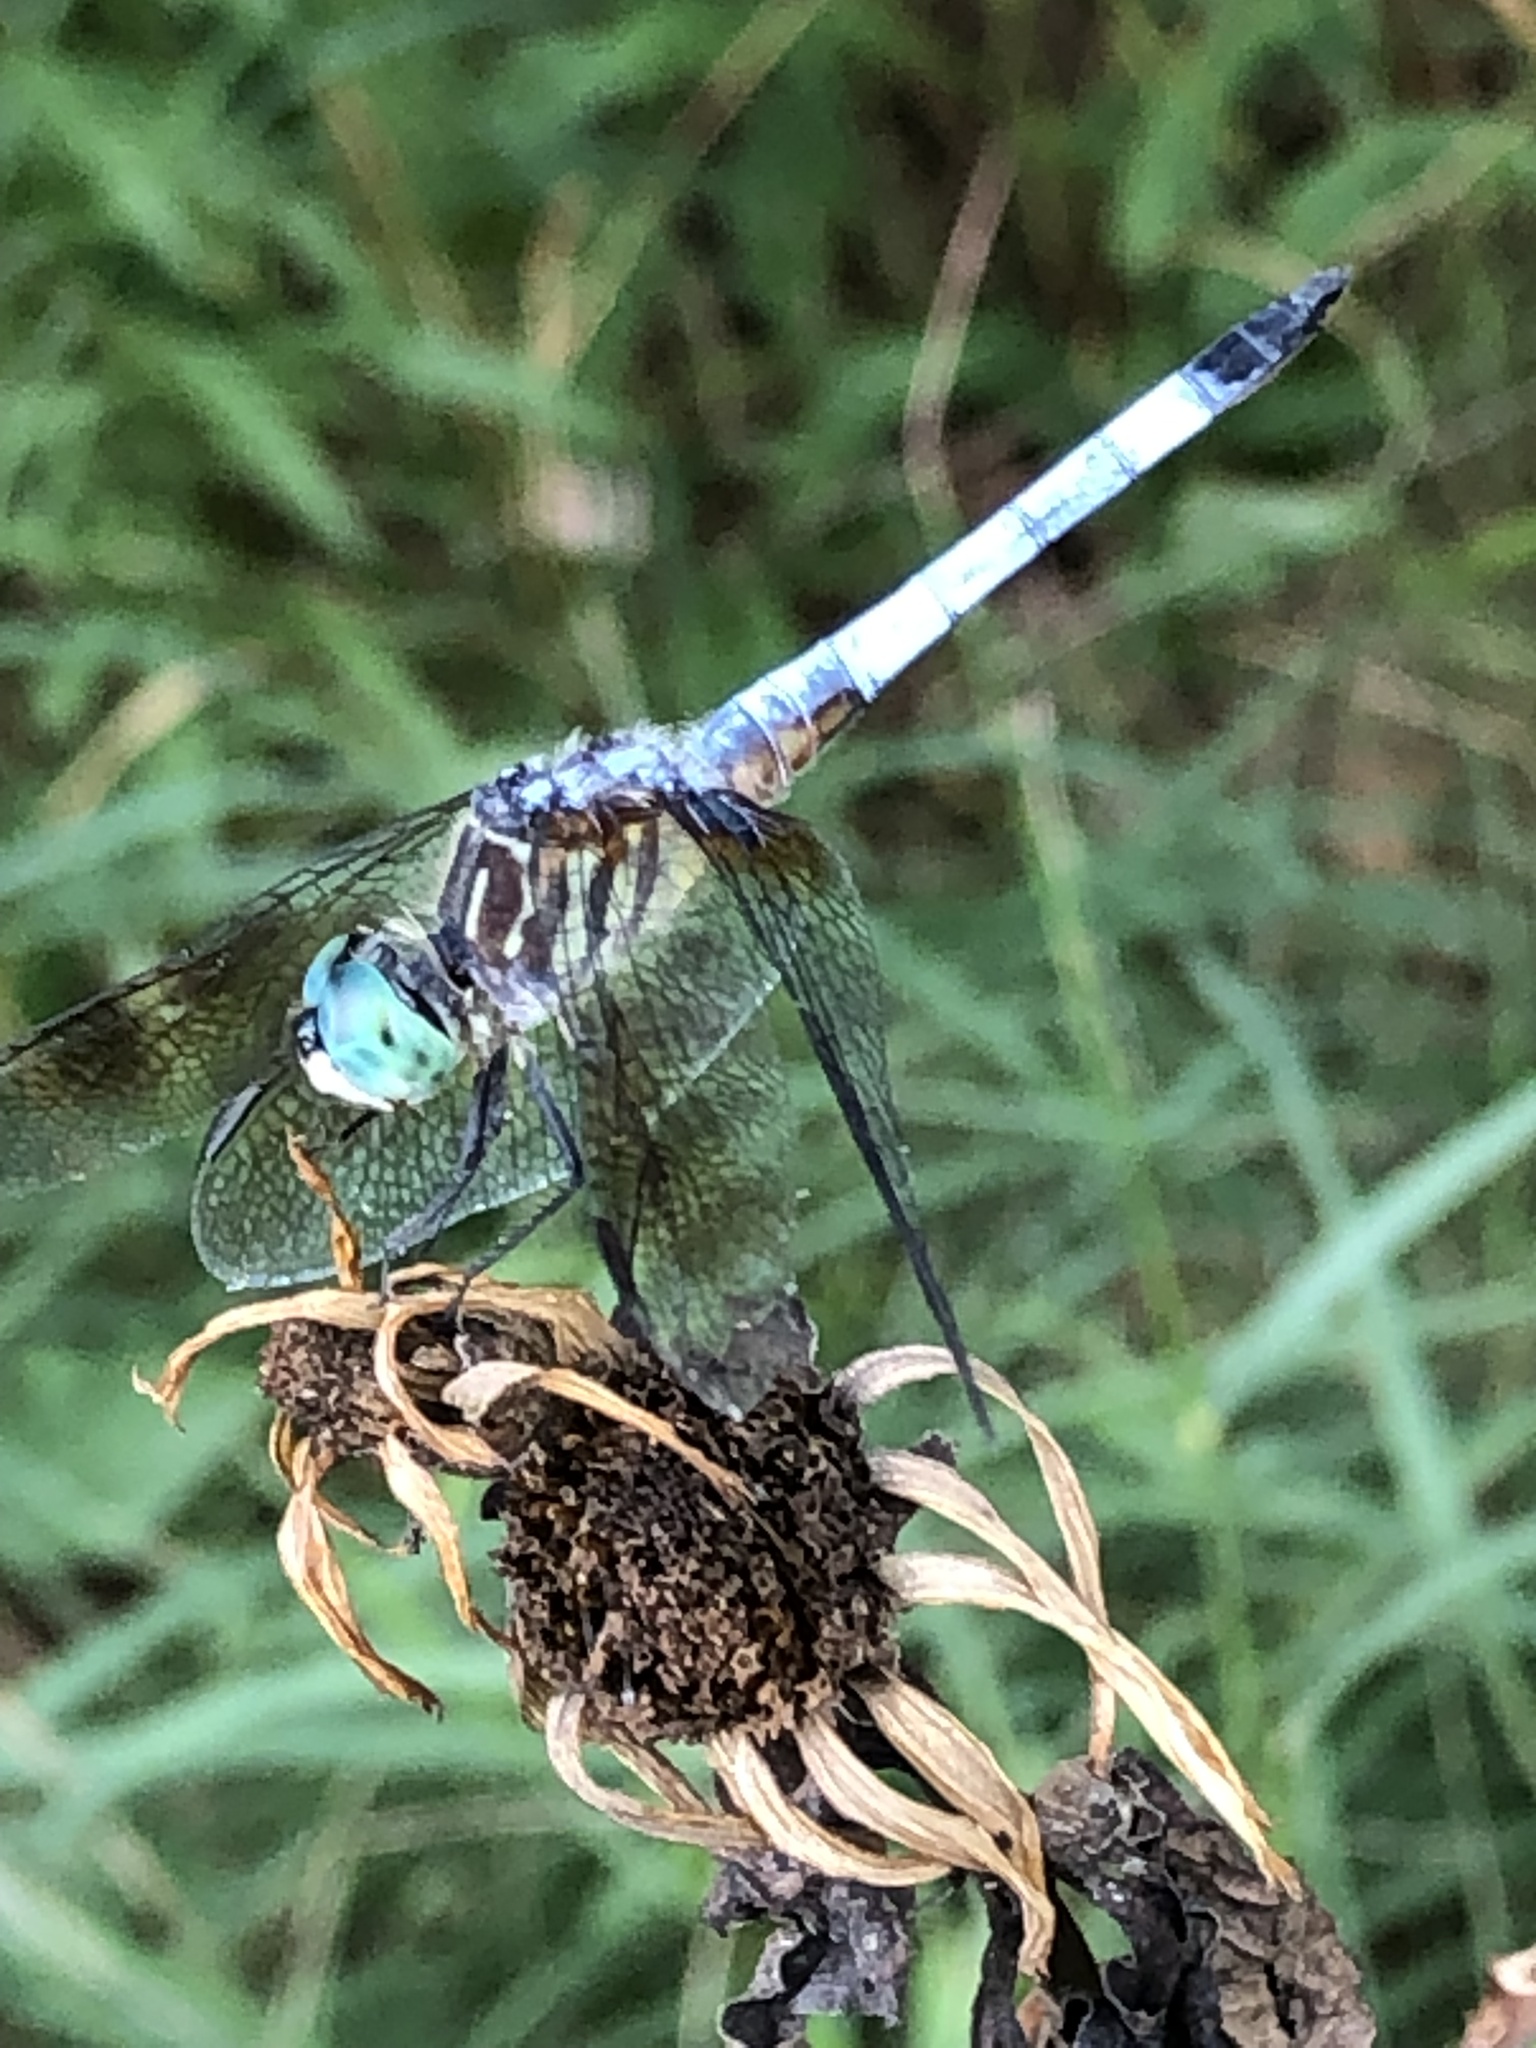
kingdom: Animalia
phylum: Arthropoda
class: Insecta
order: Odonata
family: Libellulidae
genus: Pachydiplax
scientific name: Pachydiplax longipennis
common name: Blue dasher
